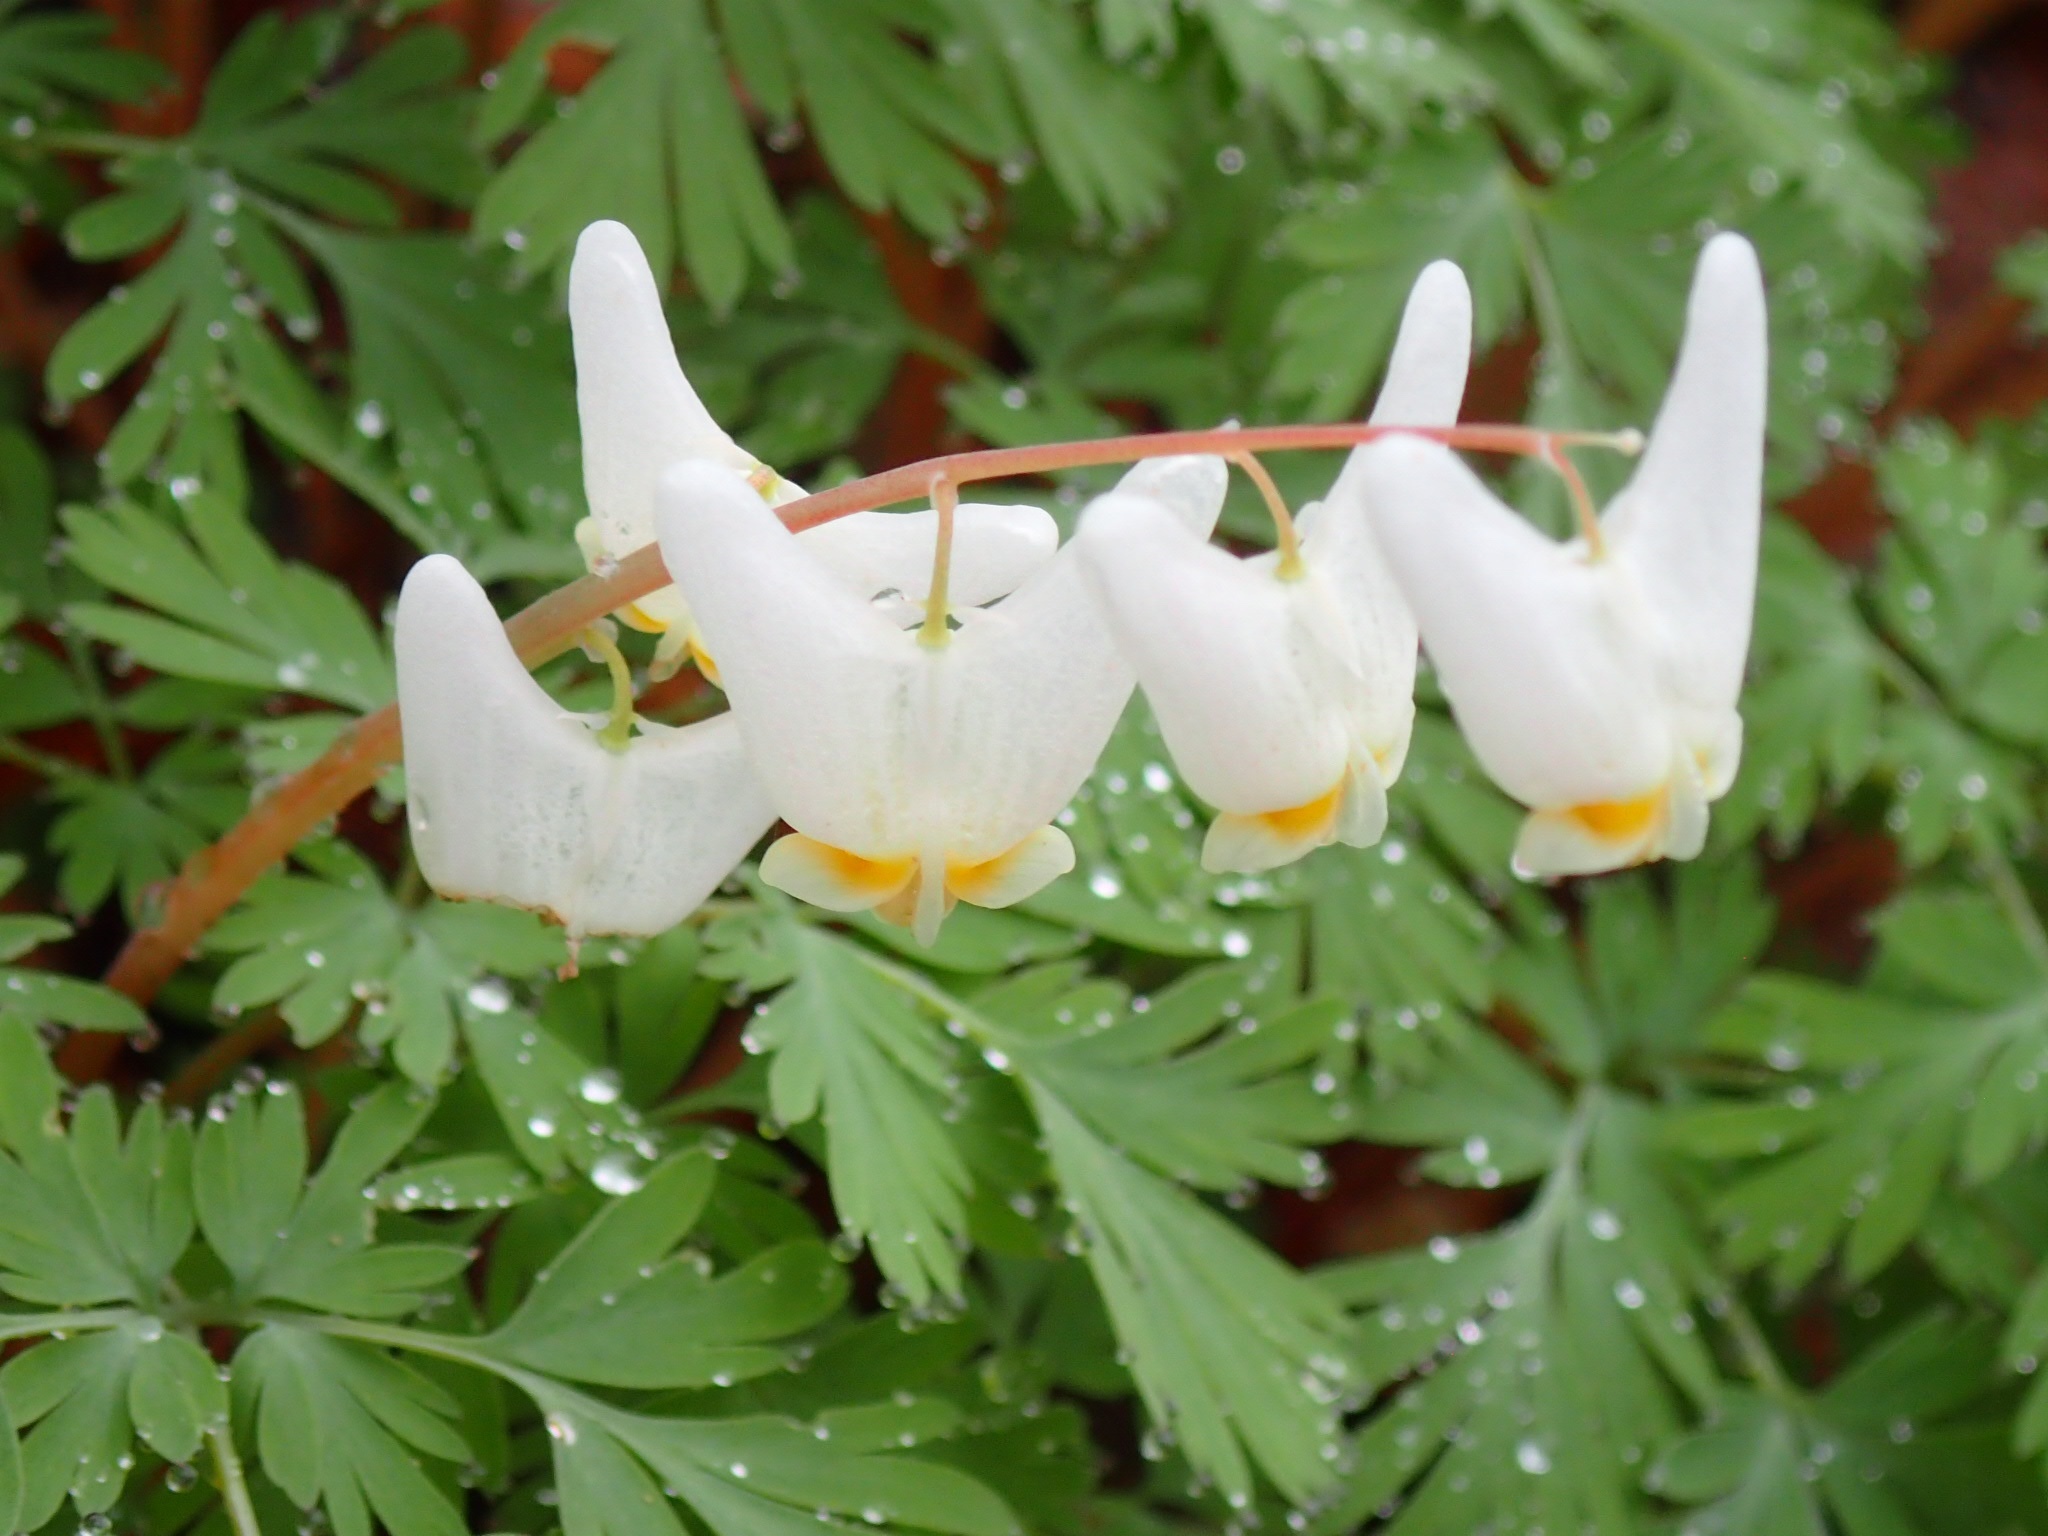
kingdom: Plantae
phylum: Tracheophyta
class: Magnoliopsida
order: Ranunculales
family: Papaveraceae
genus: Dicentra
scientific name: Dicentra cucullaria
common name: Dutchman's breeches
